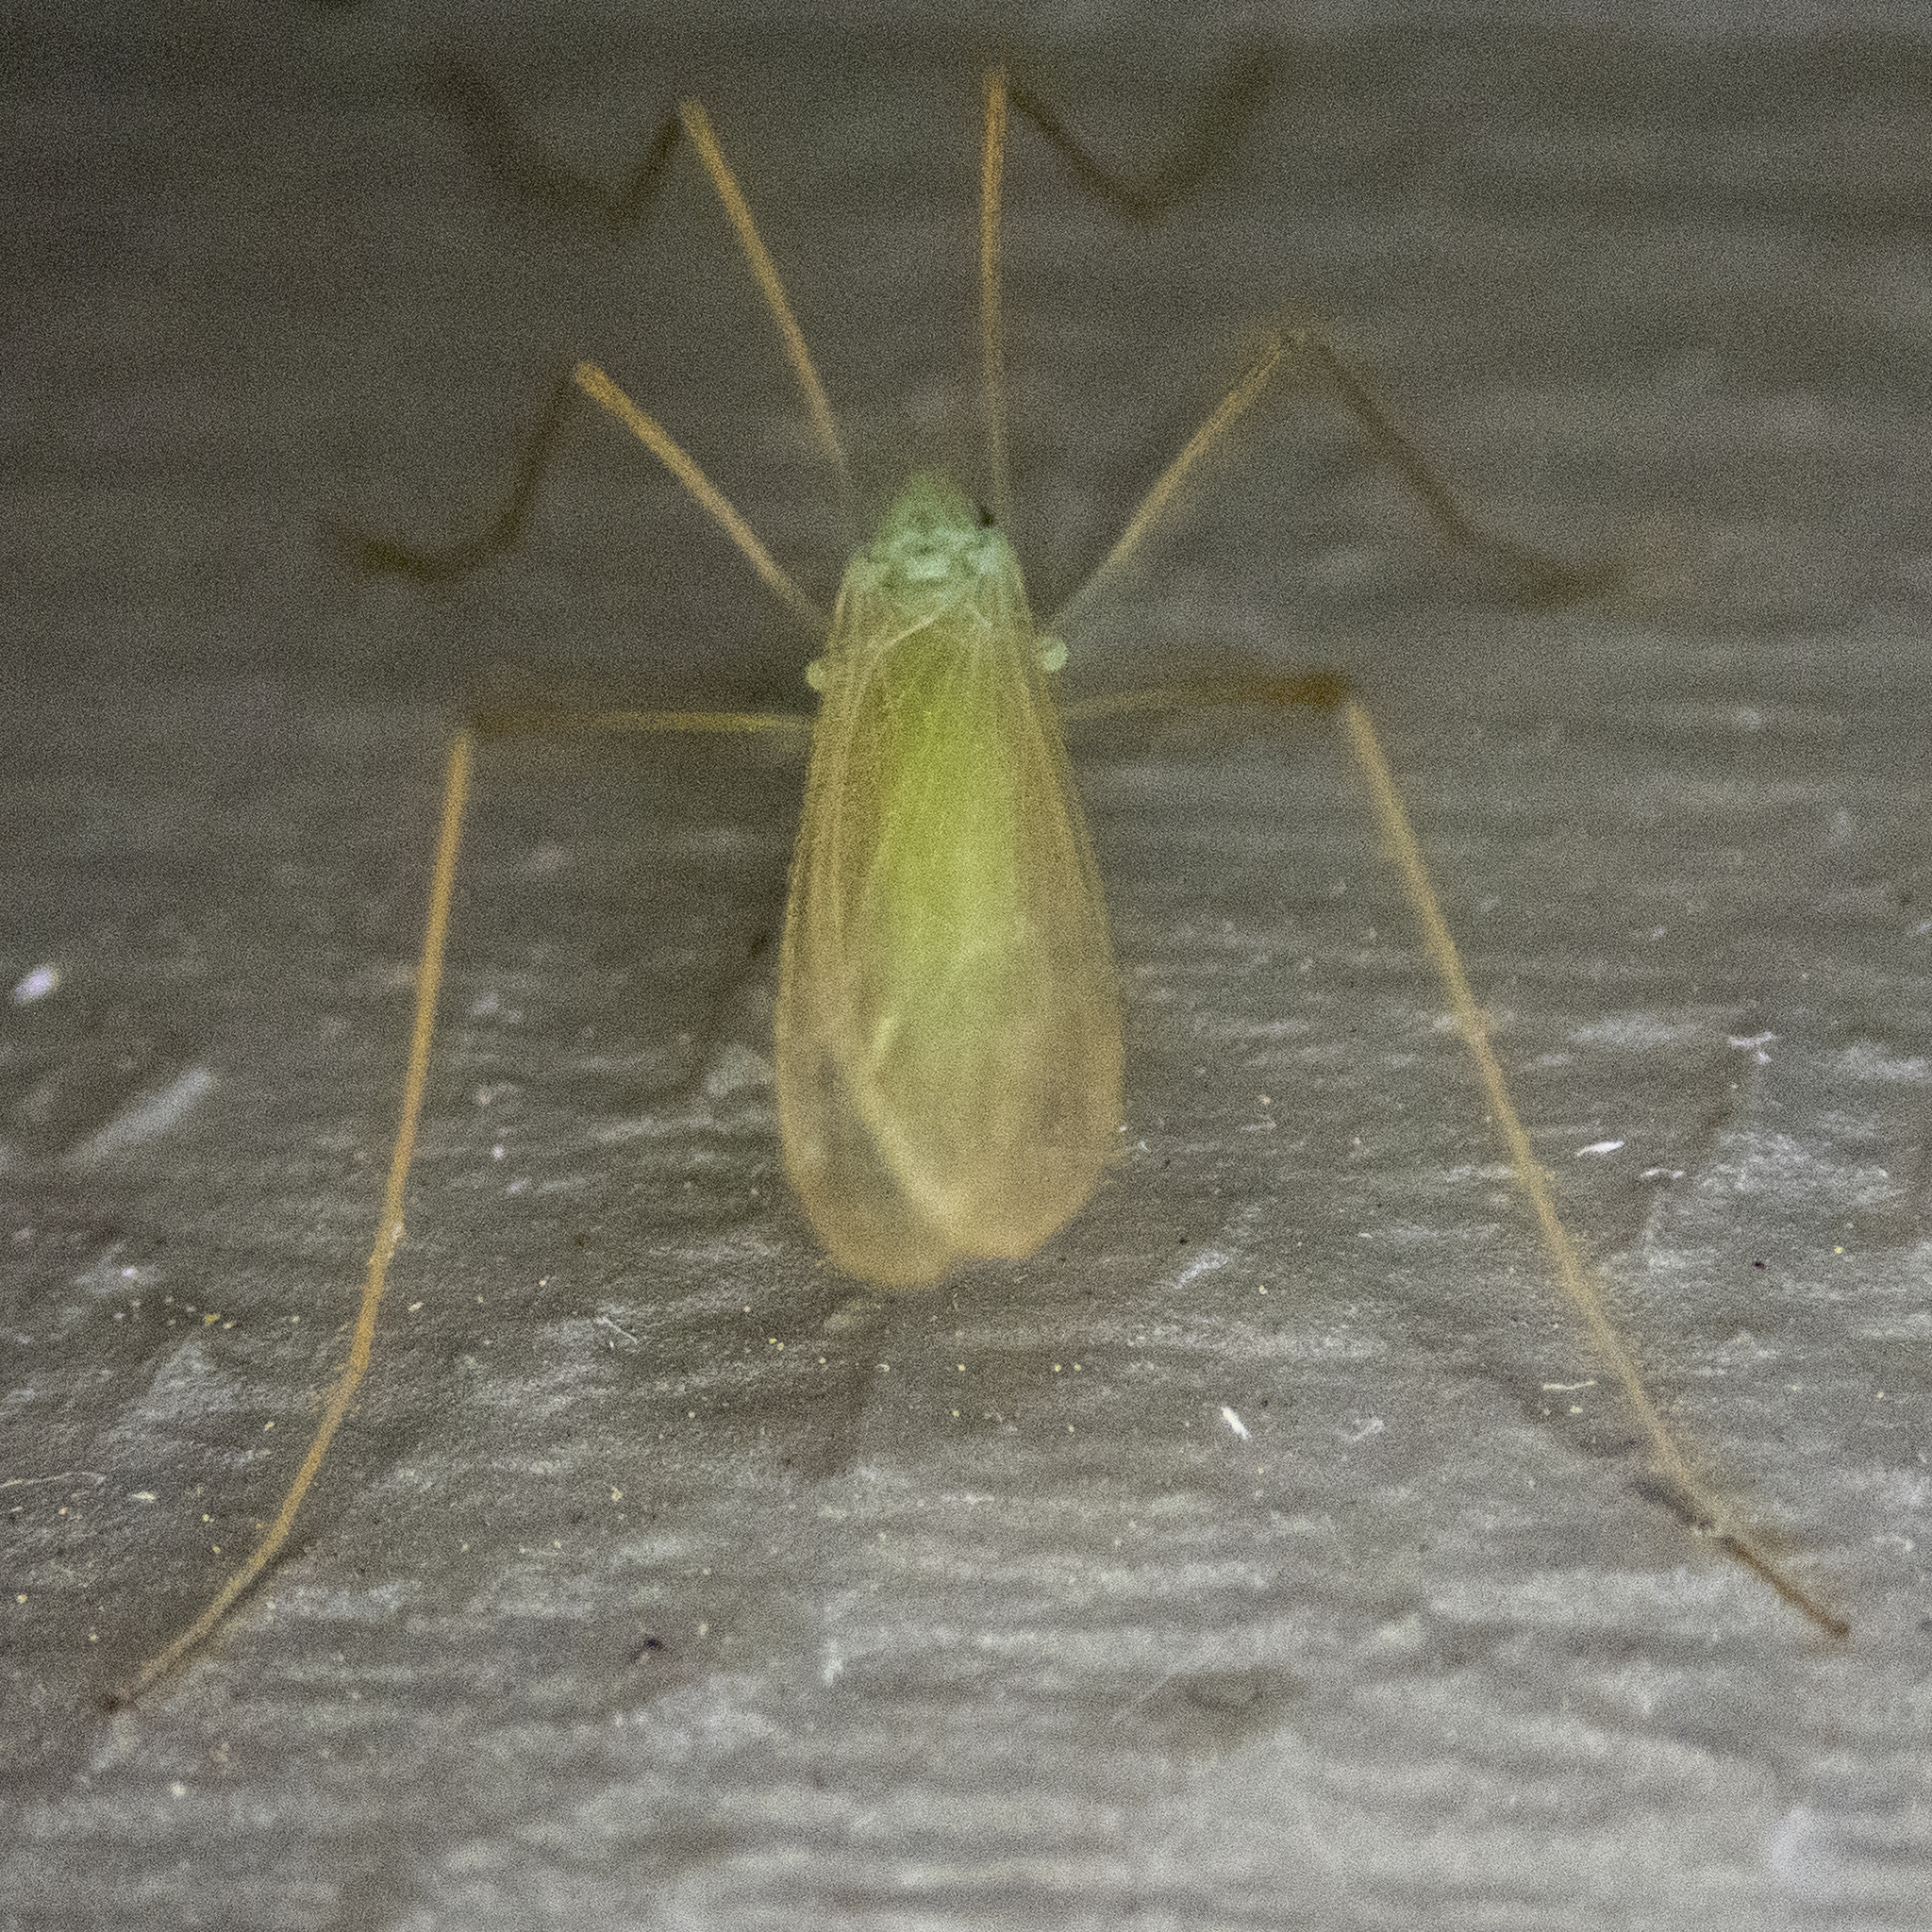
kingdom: Animalia
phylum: Arthropoda
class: Insecta
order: Diptera
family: Limoniidae
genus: Erioptera
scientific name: Erioptera
